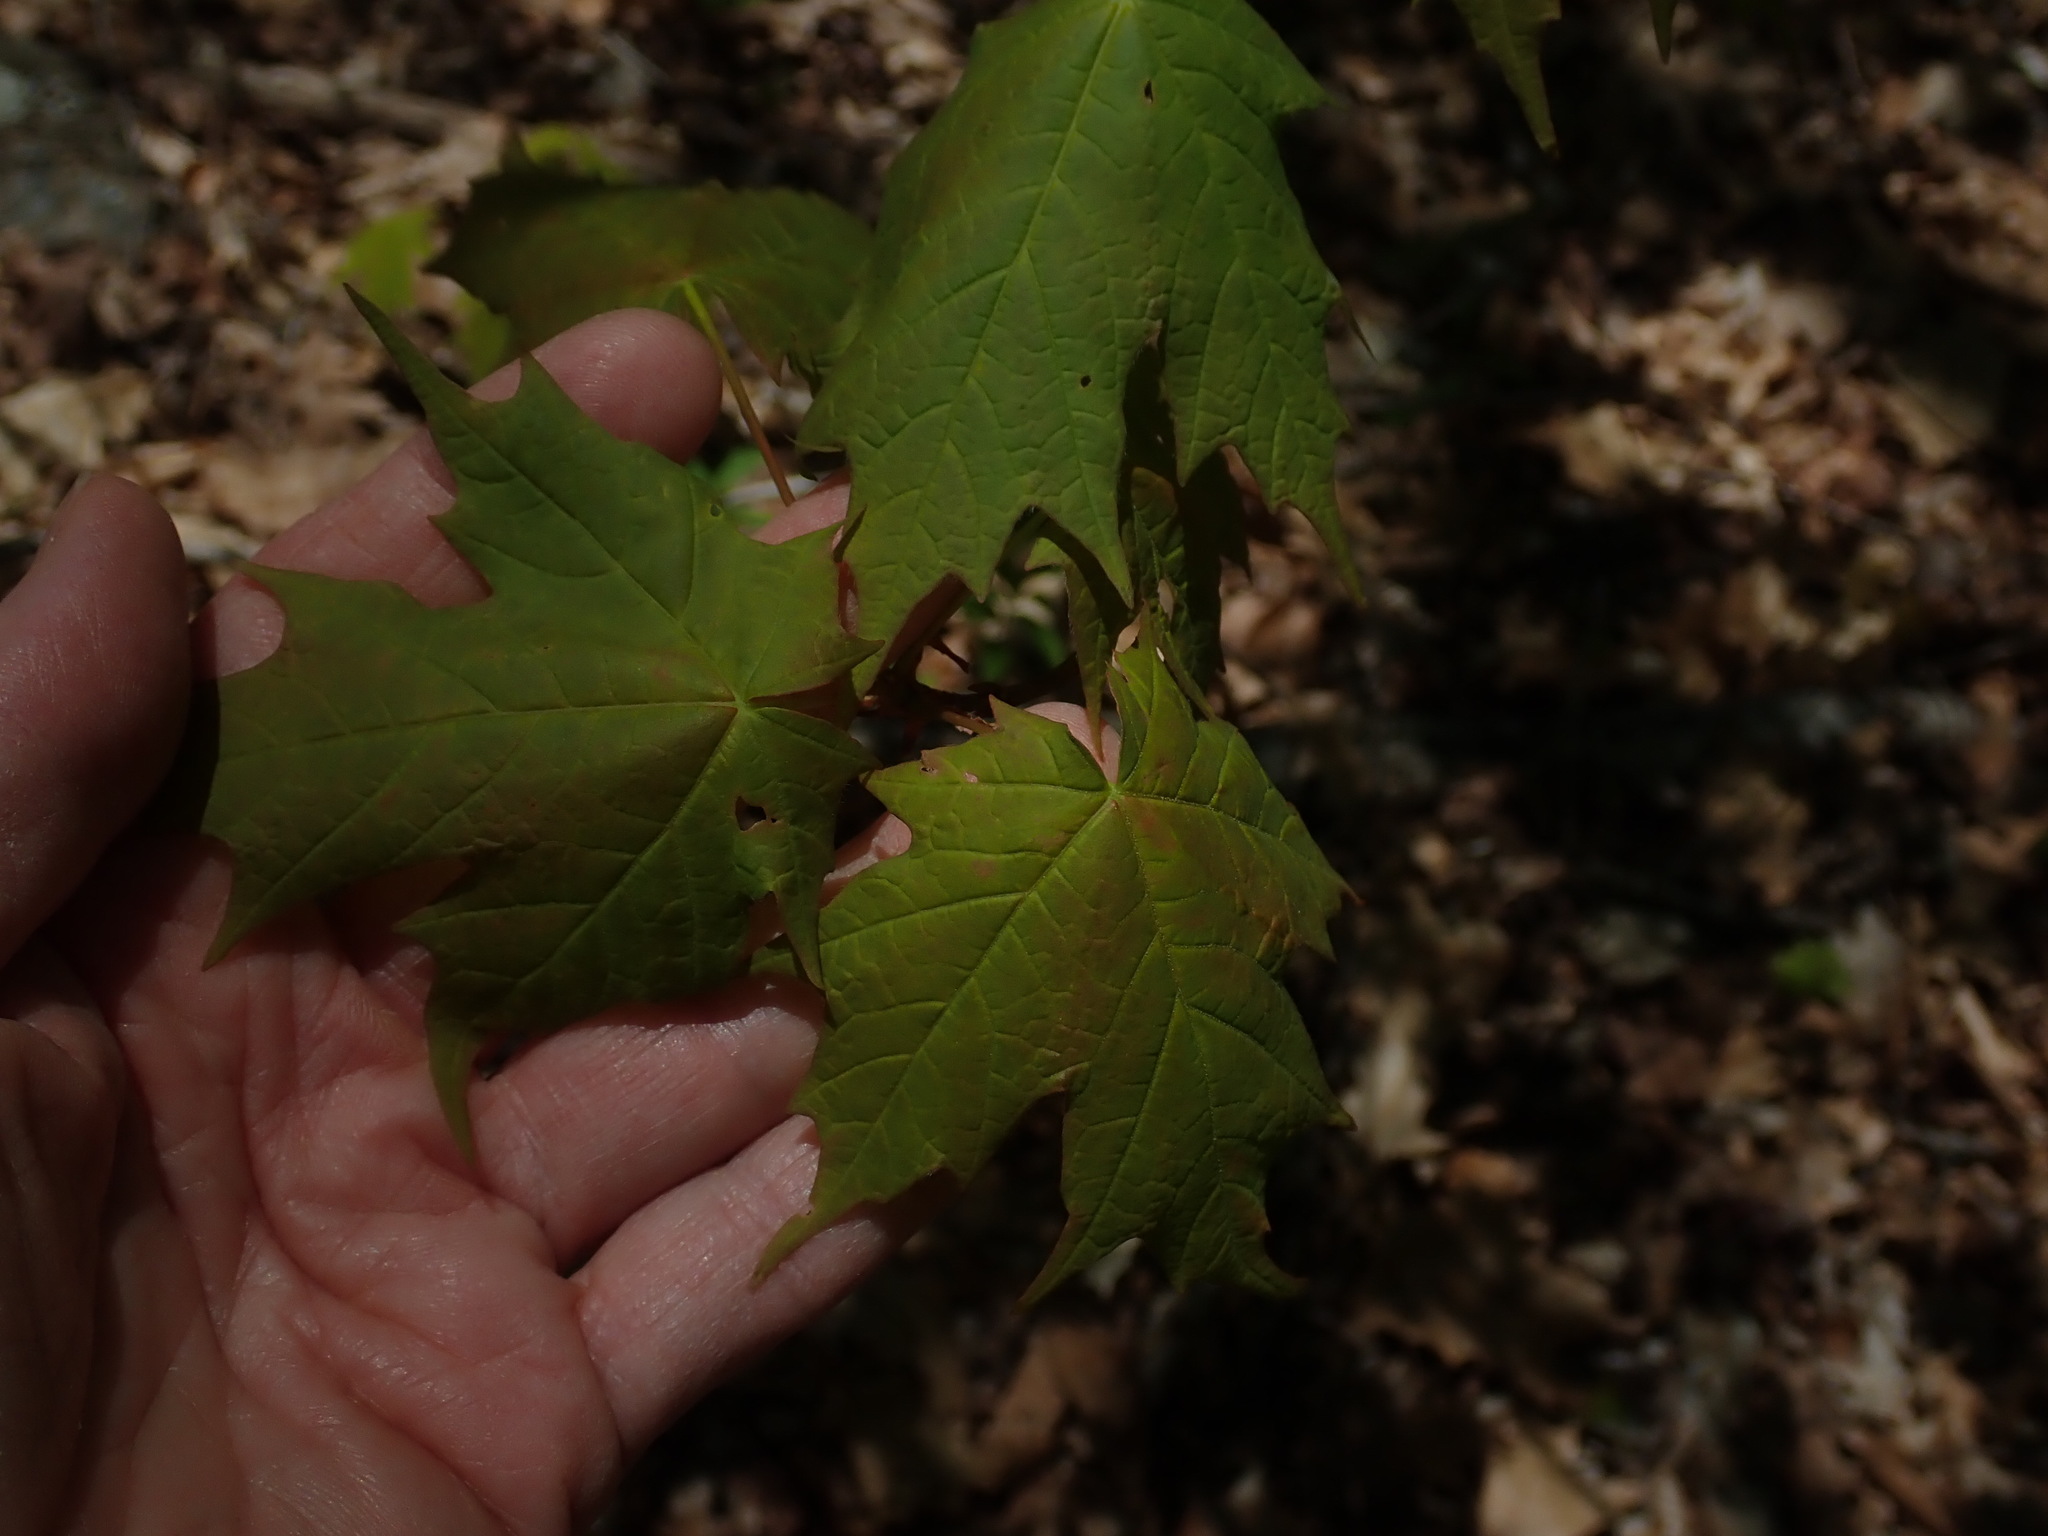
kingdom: Plantae
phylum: Tracheophyta
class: Magnoliopsida
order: Sapindales
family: Sapindaceae
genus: Acer
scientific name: Acer saccharum
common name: Sugar maple
